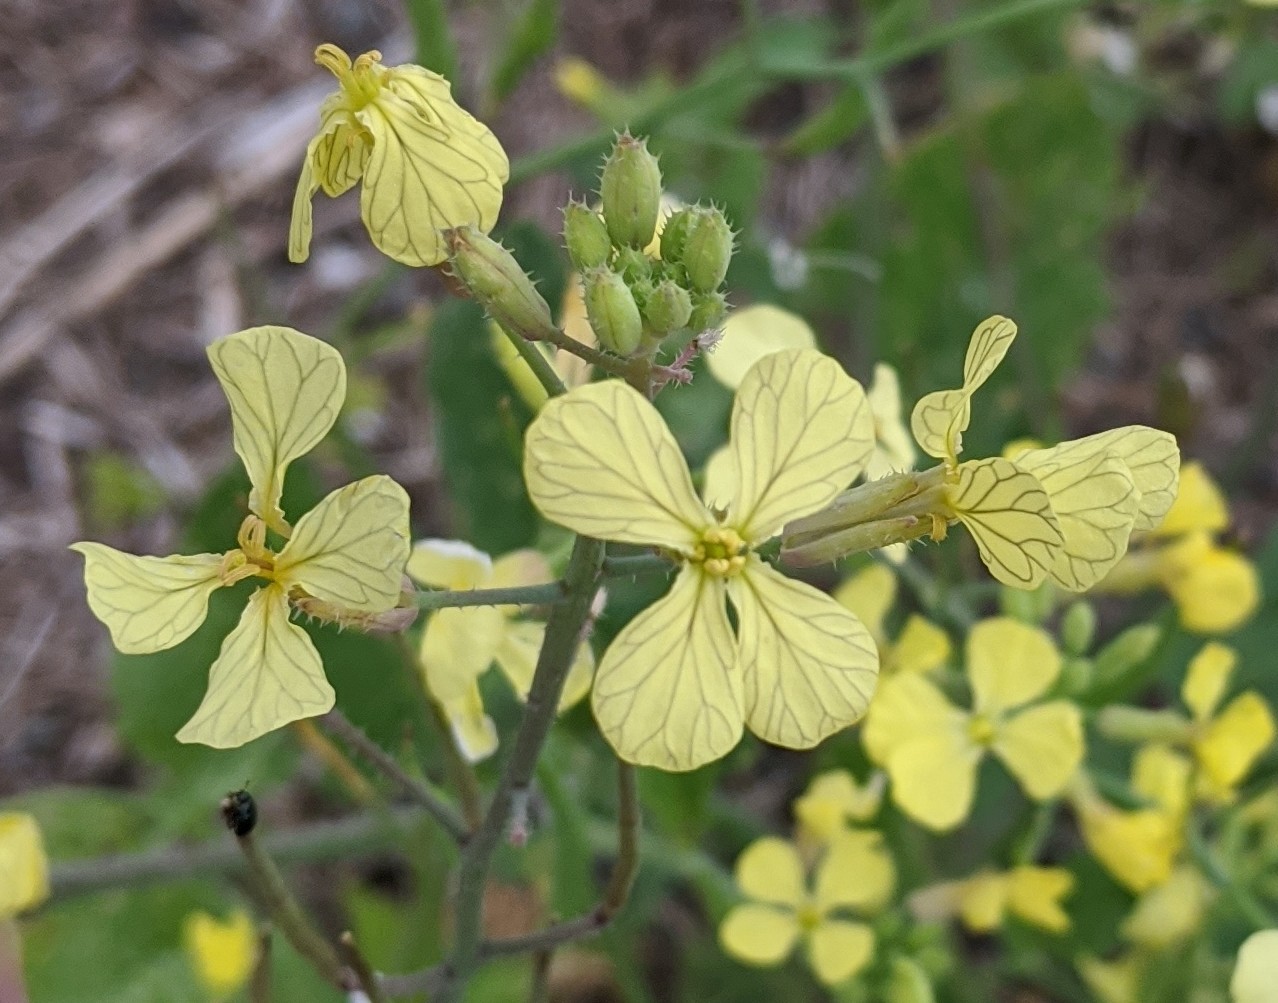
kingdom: Plantae
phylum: Tracheophyta
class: Magnoliopsida
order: Brassicales
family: Brassicaceae
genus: Raphanus
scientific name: Raphanus raphanistrum
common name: Wild radish
